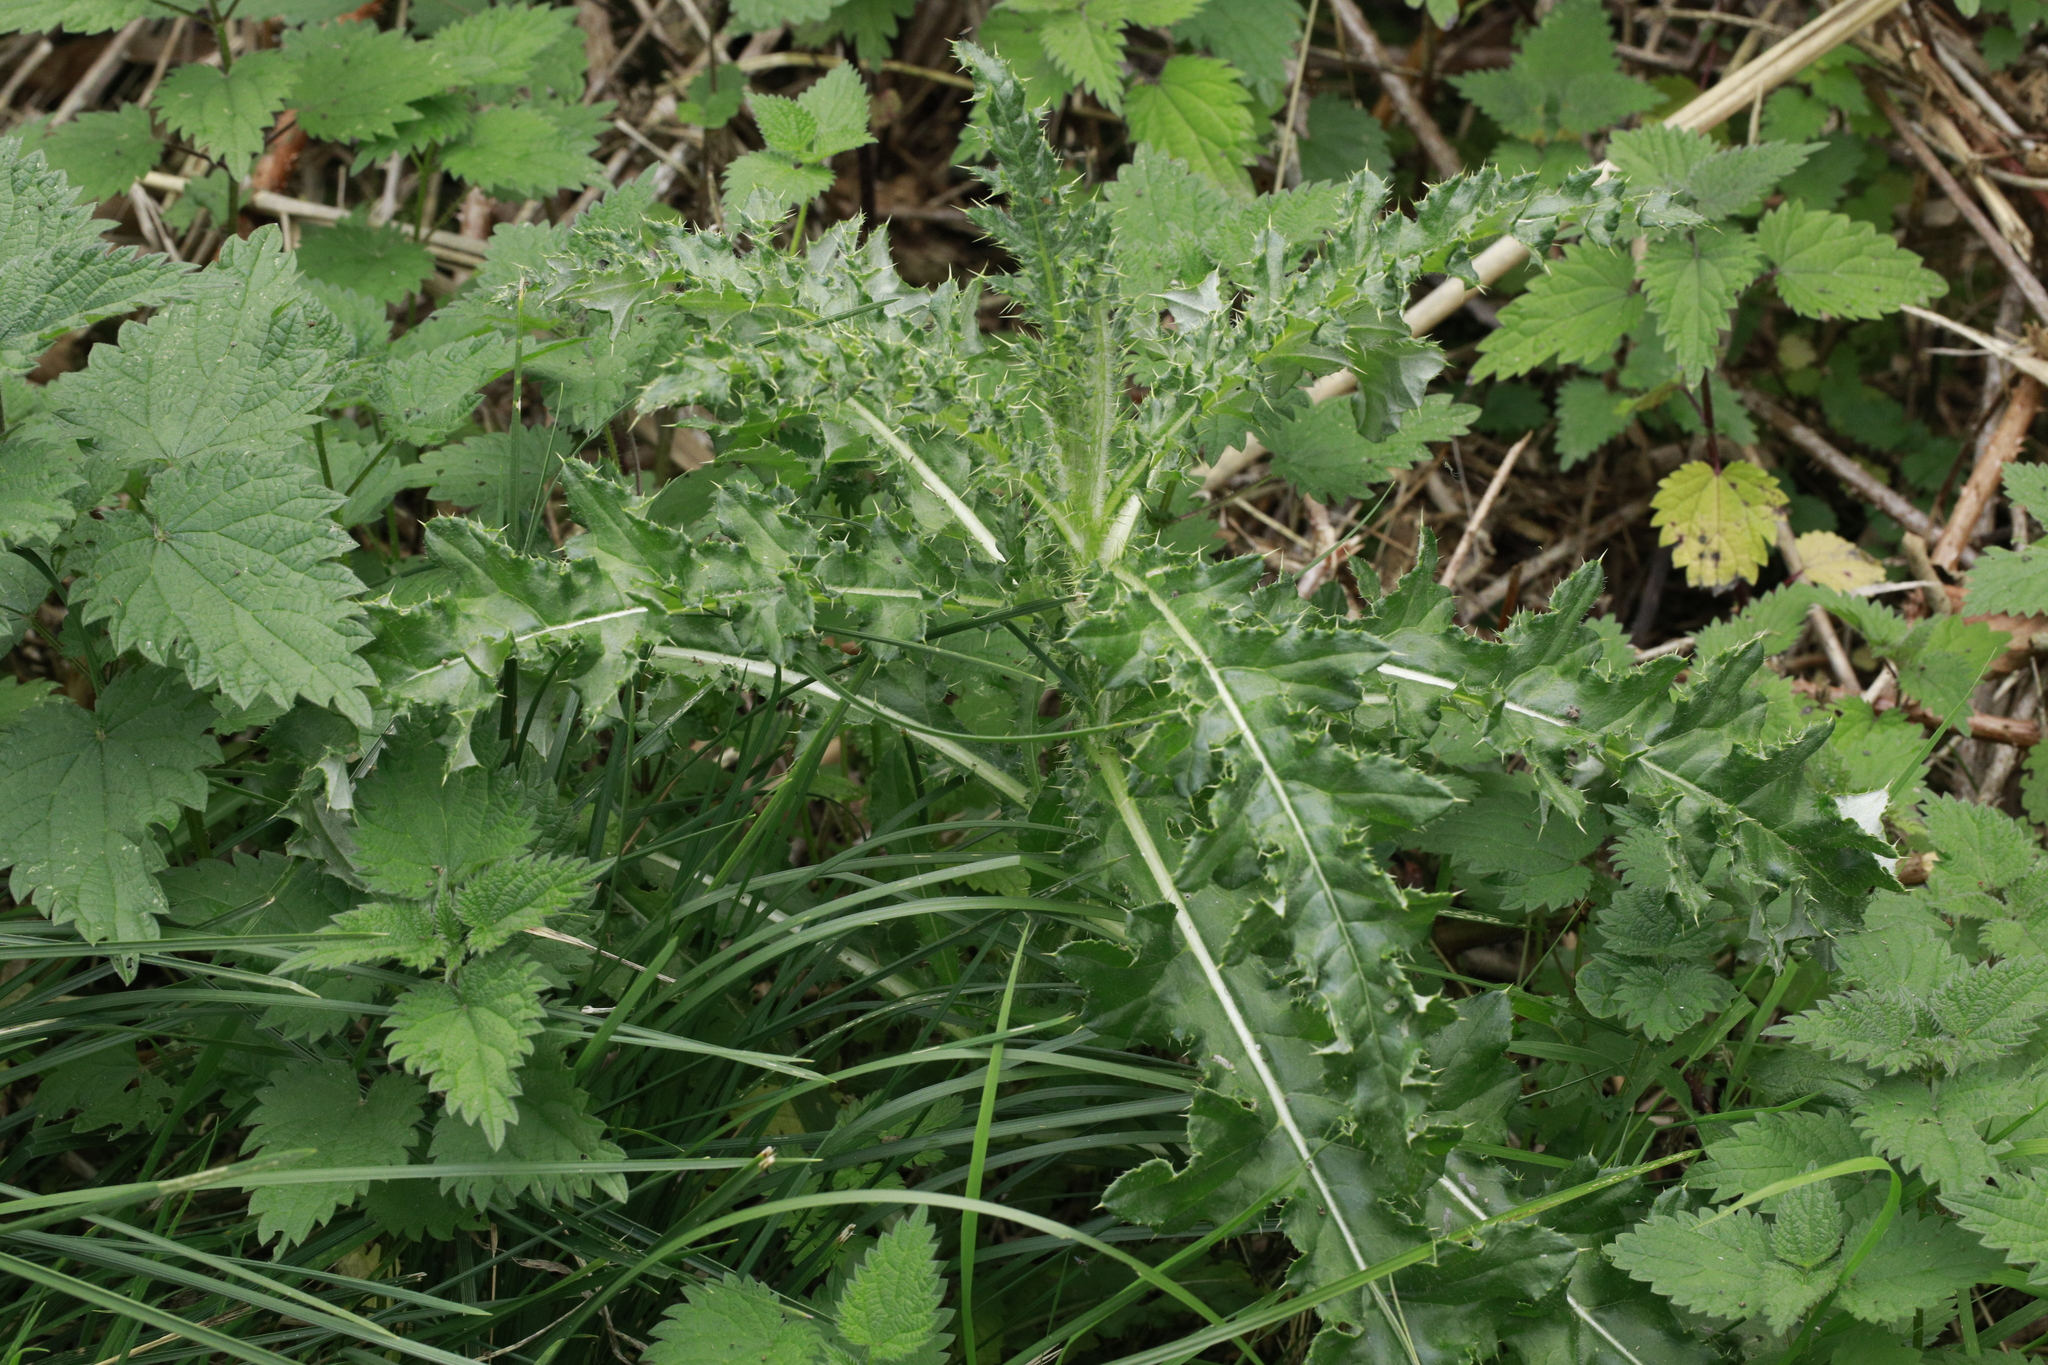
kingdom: Plantae
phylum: Tracheophyta
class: Magnoliopsida
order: Asterales
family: Asteraceae
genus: Cirsium
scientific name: Cirsium arvense
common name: Creeping thistle
